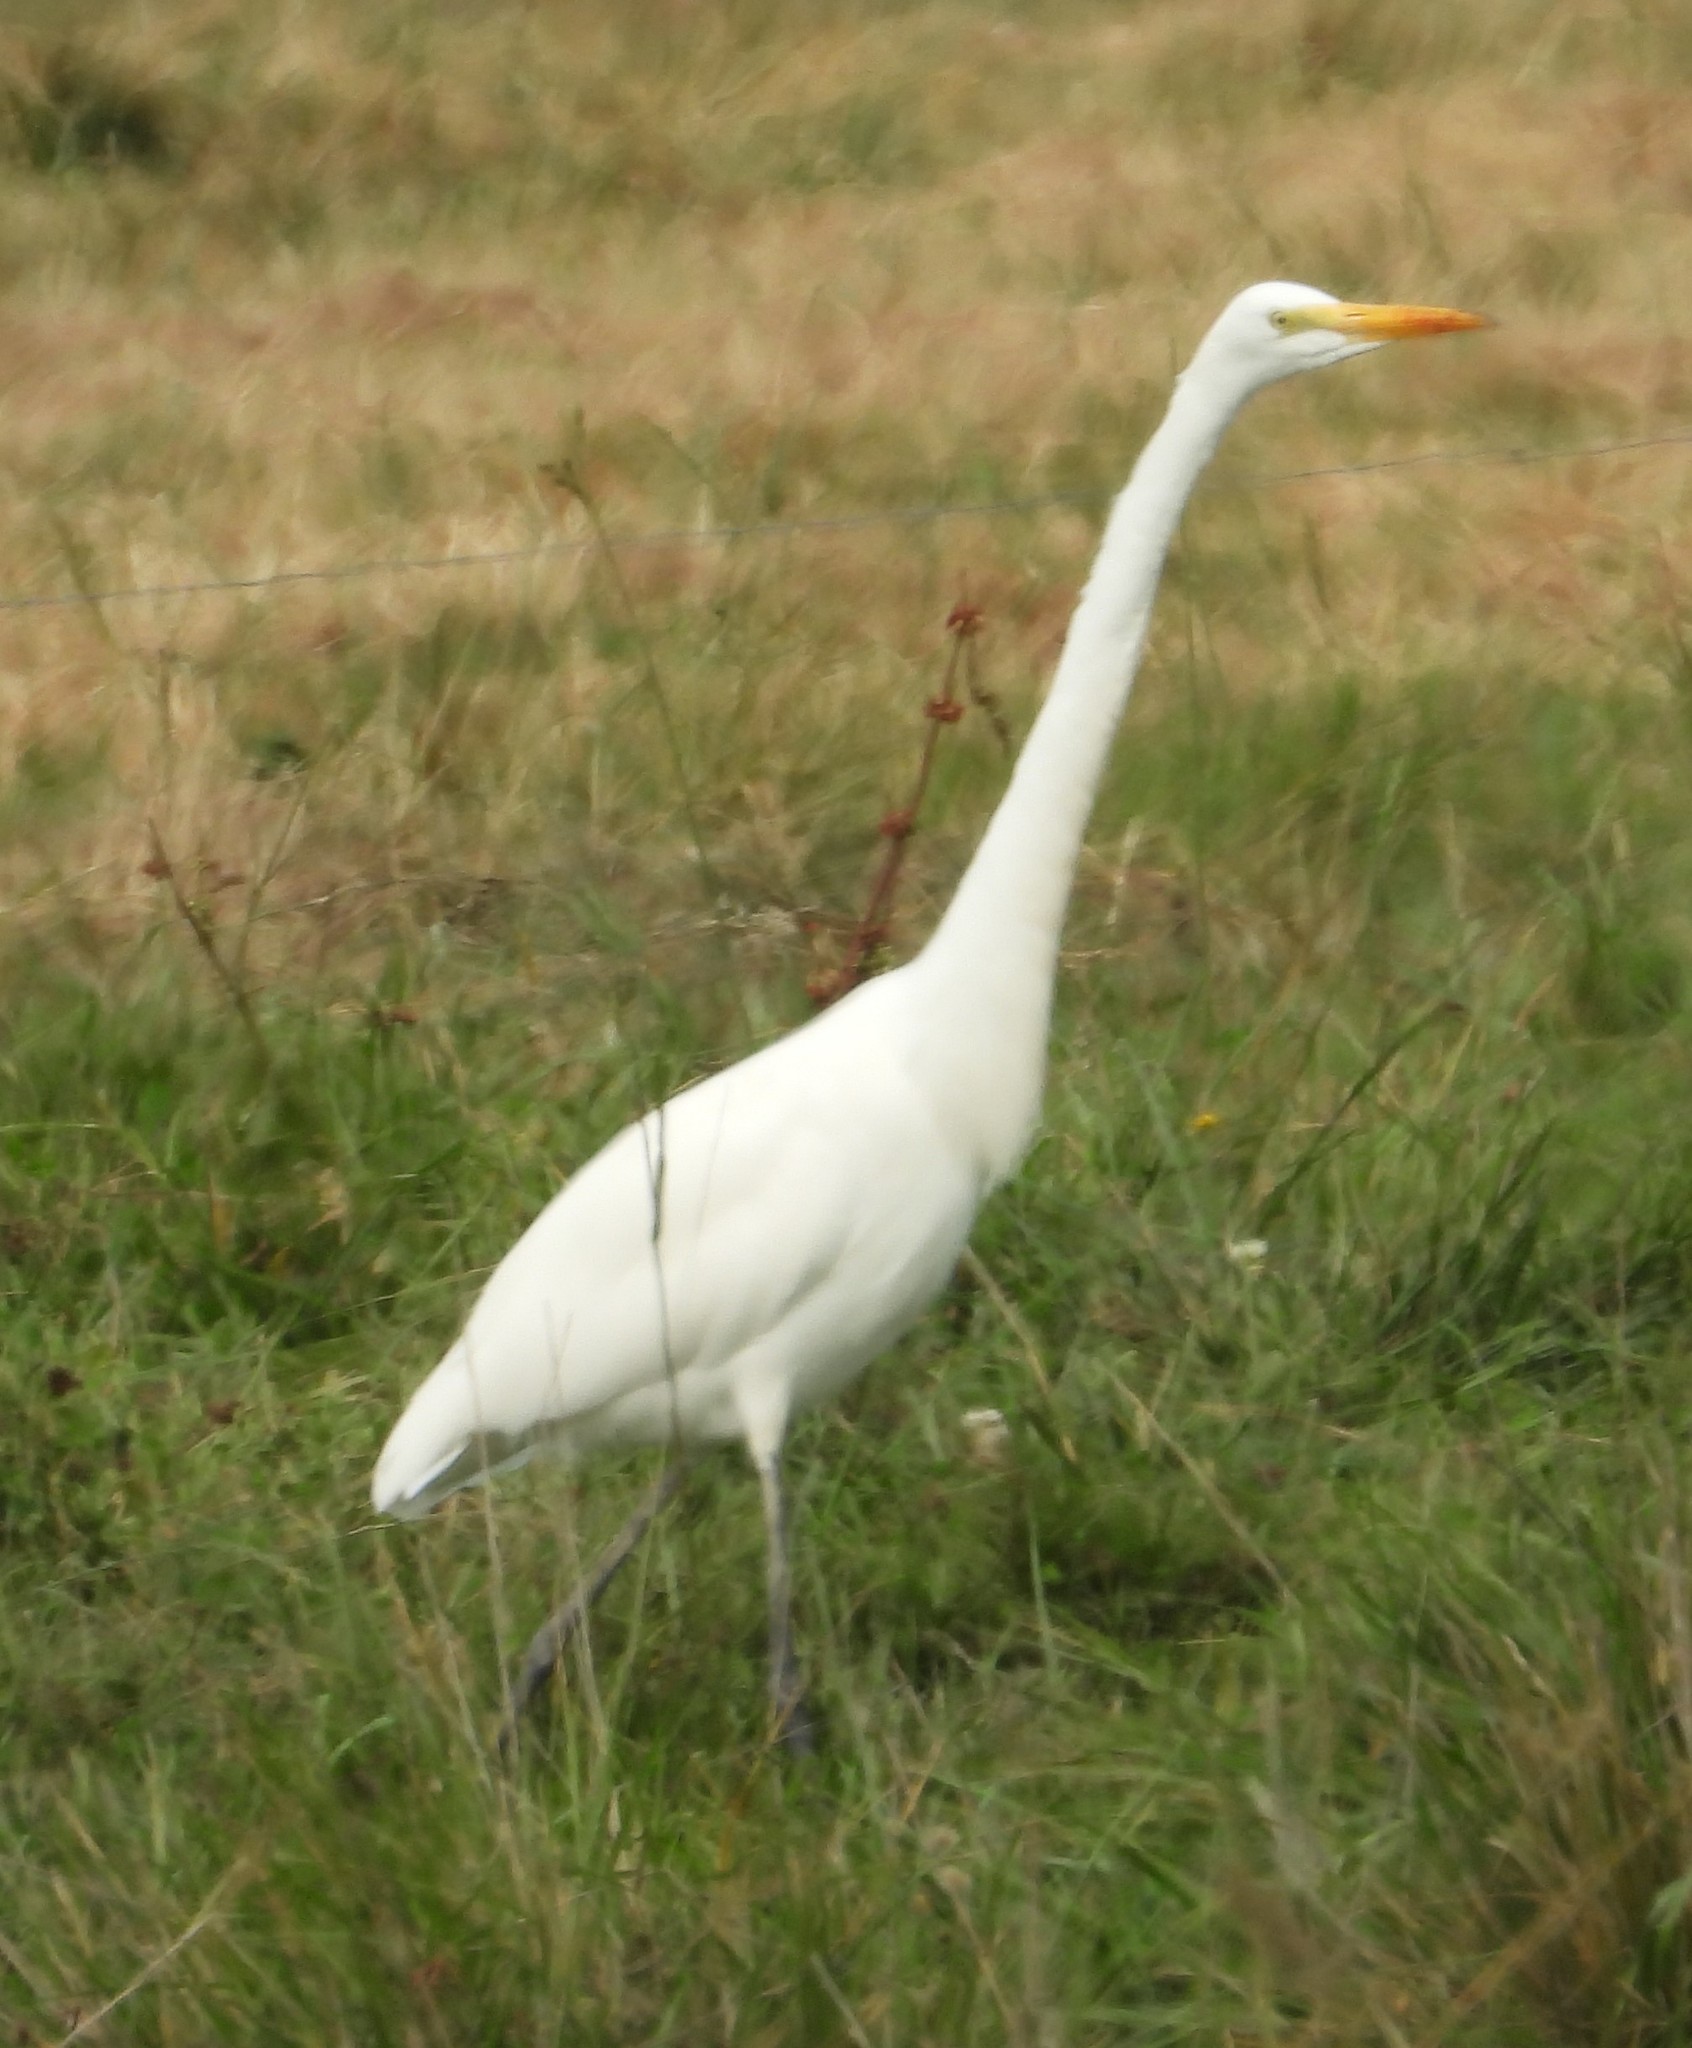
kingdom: Animalia
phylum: Chordata
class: Aves
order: Pelecaniformes
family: Ardeidae
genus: Ardea
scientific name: Ardea alba
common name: Great egret
